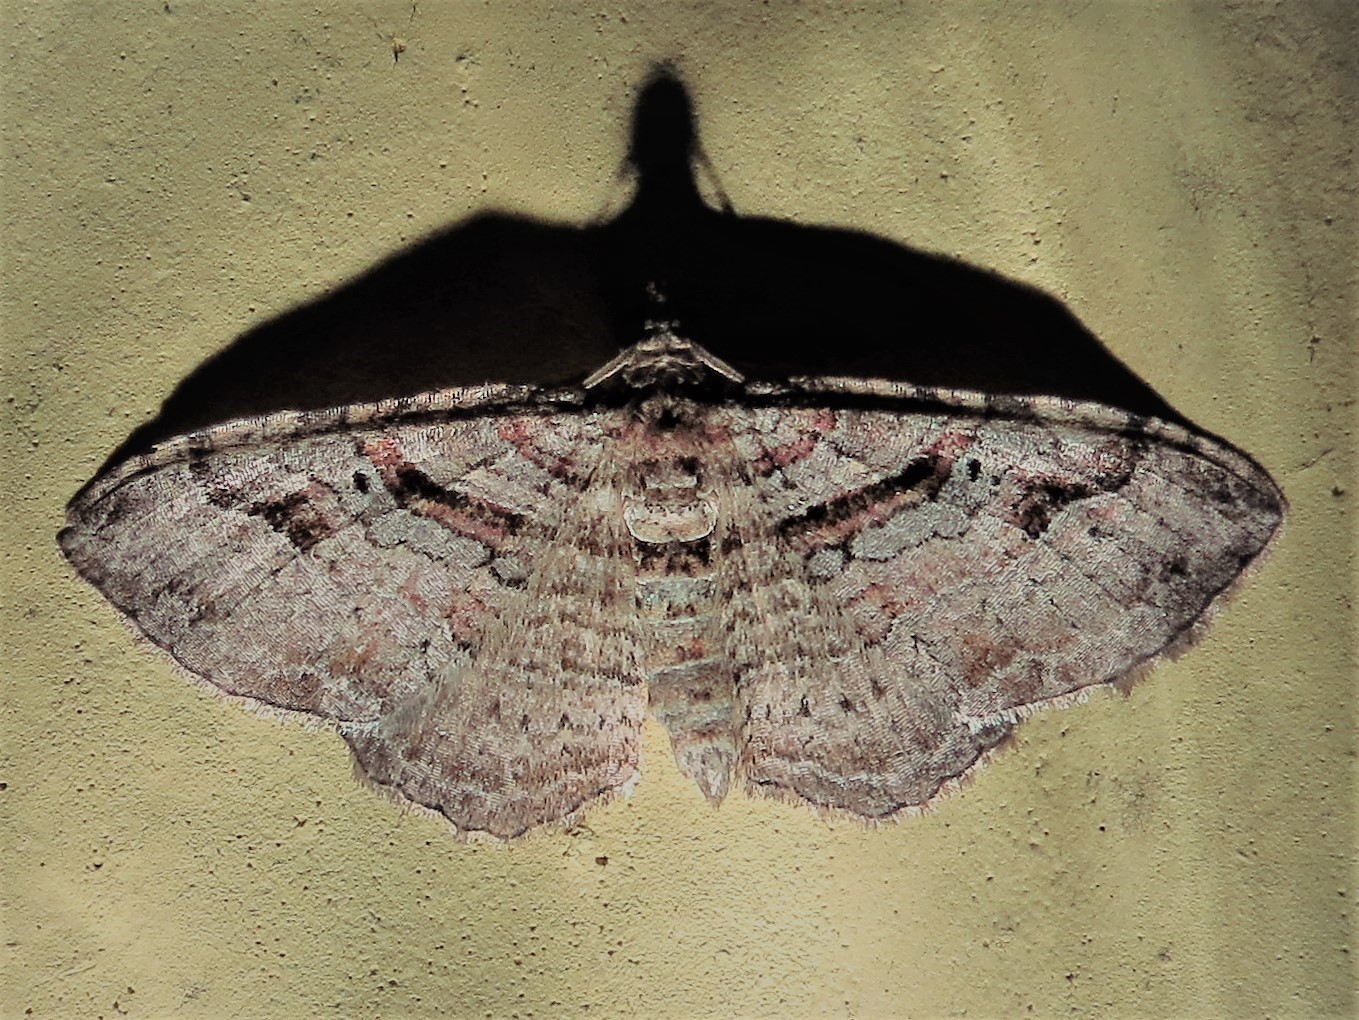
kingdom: Animalia
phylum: Arthropoda
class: Insecta
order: Lepidoptera
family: Geometridae
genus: Costaconvexa
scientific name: Costaconvexa centrostrigaria
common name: Bent-line carpet
